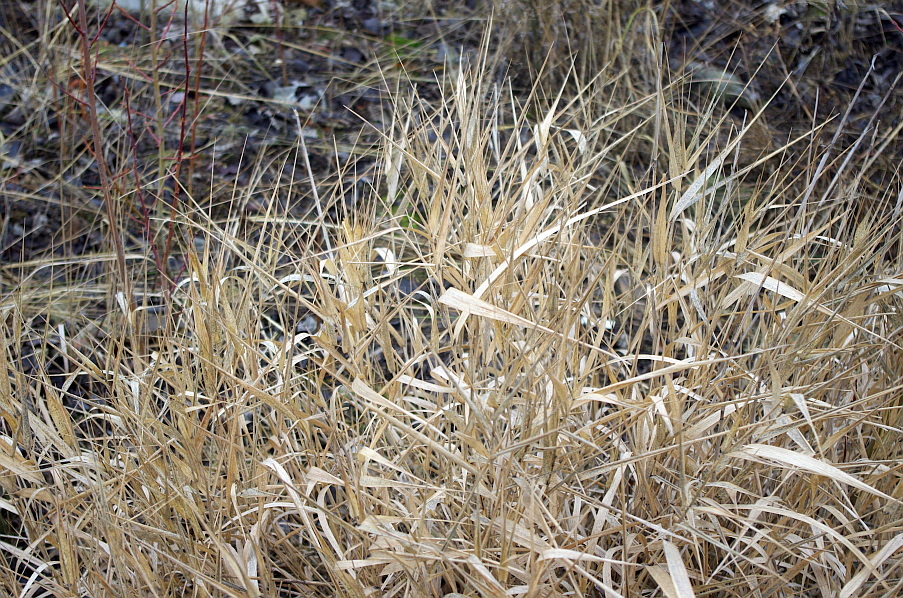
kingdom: Plantae
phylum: Tracheophyta
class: Liliopsida
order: Poales
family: Poaceae
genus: Phalaris
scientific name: Phalaris arundinacea
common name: Reed canary-grass
